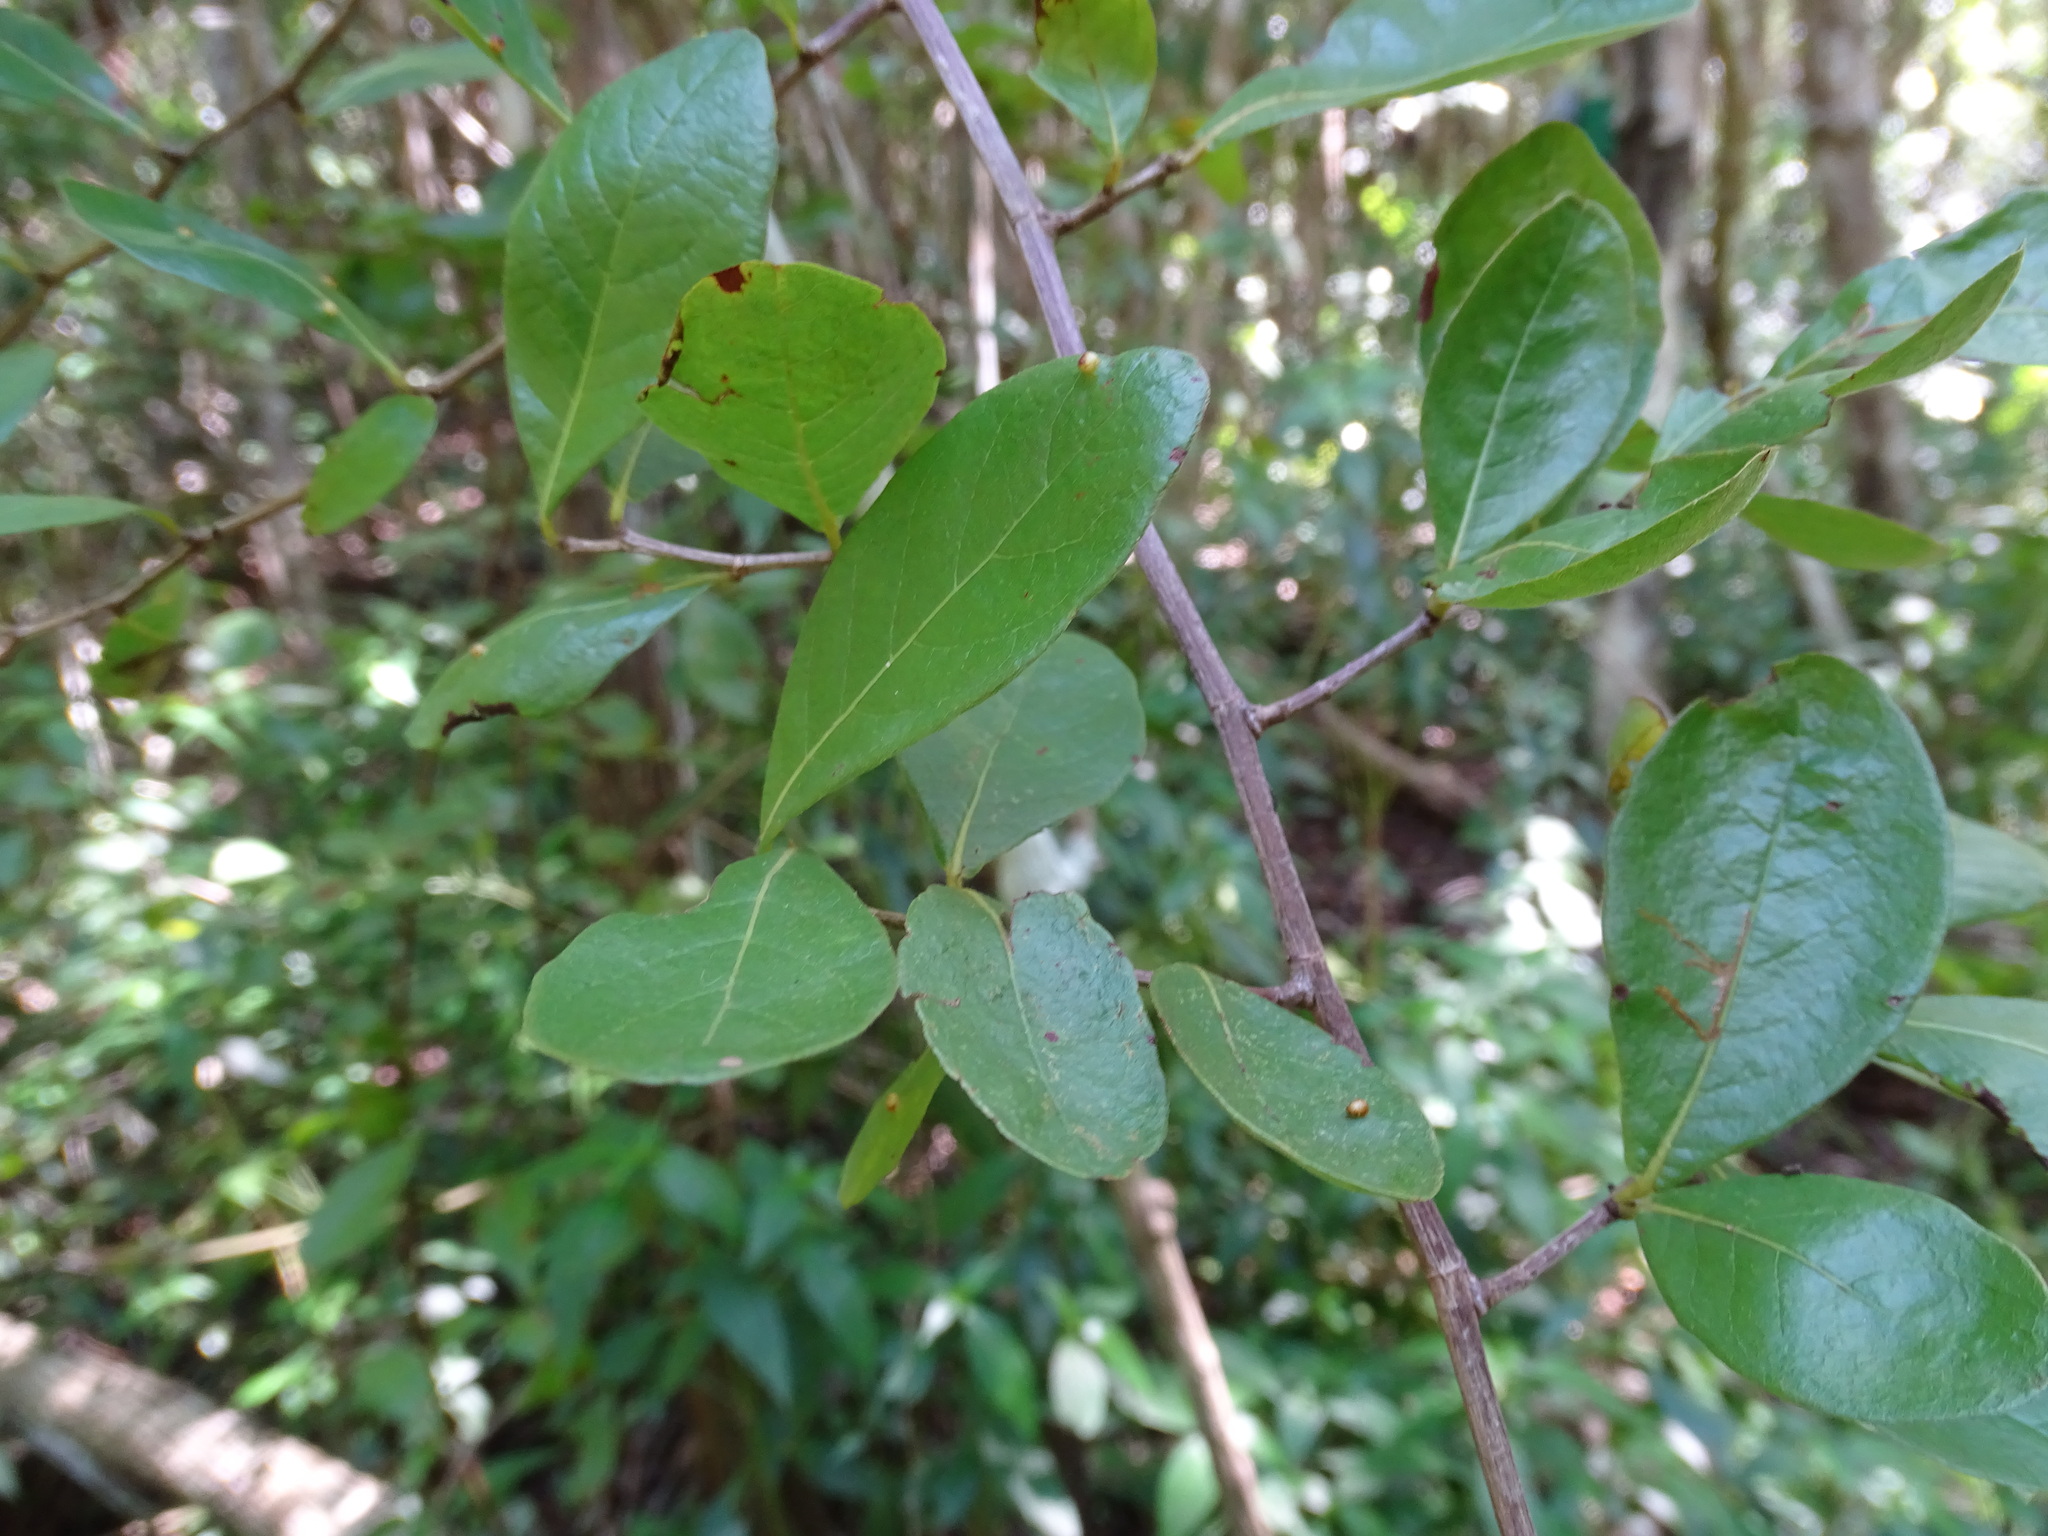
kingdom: Plantae
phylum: Tracheophyta
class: Magnoliopsida
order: Caryophyllales
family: Polygonaceae
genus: Gymnopodium
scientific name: Gymnopodium floribundum
